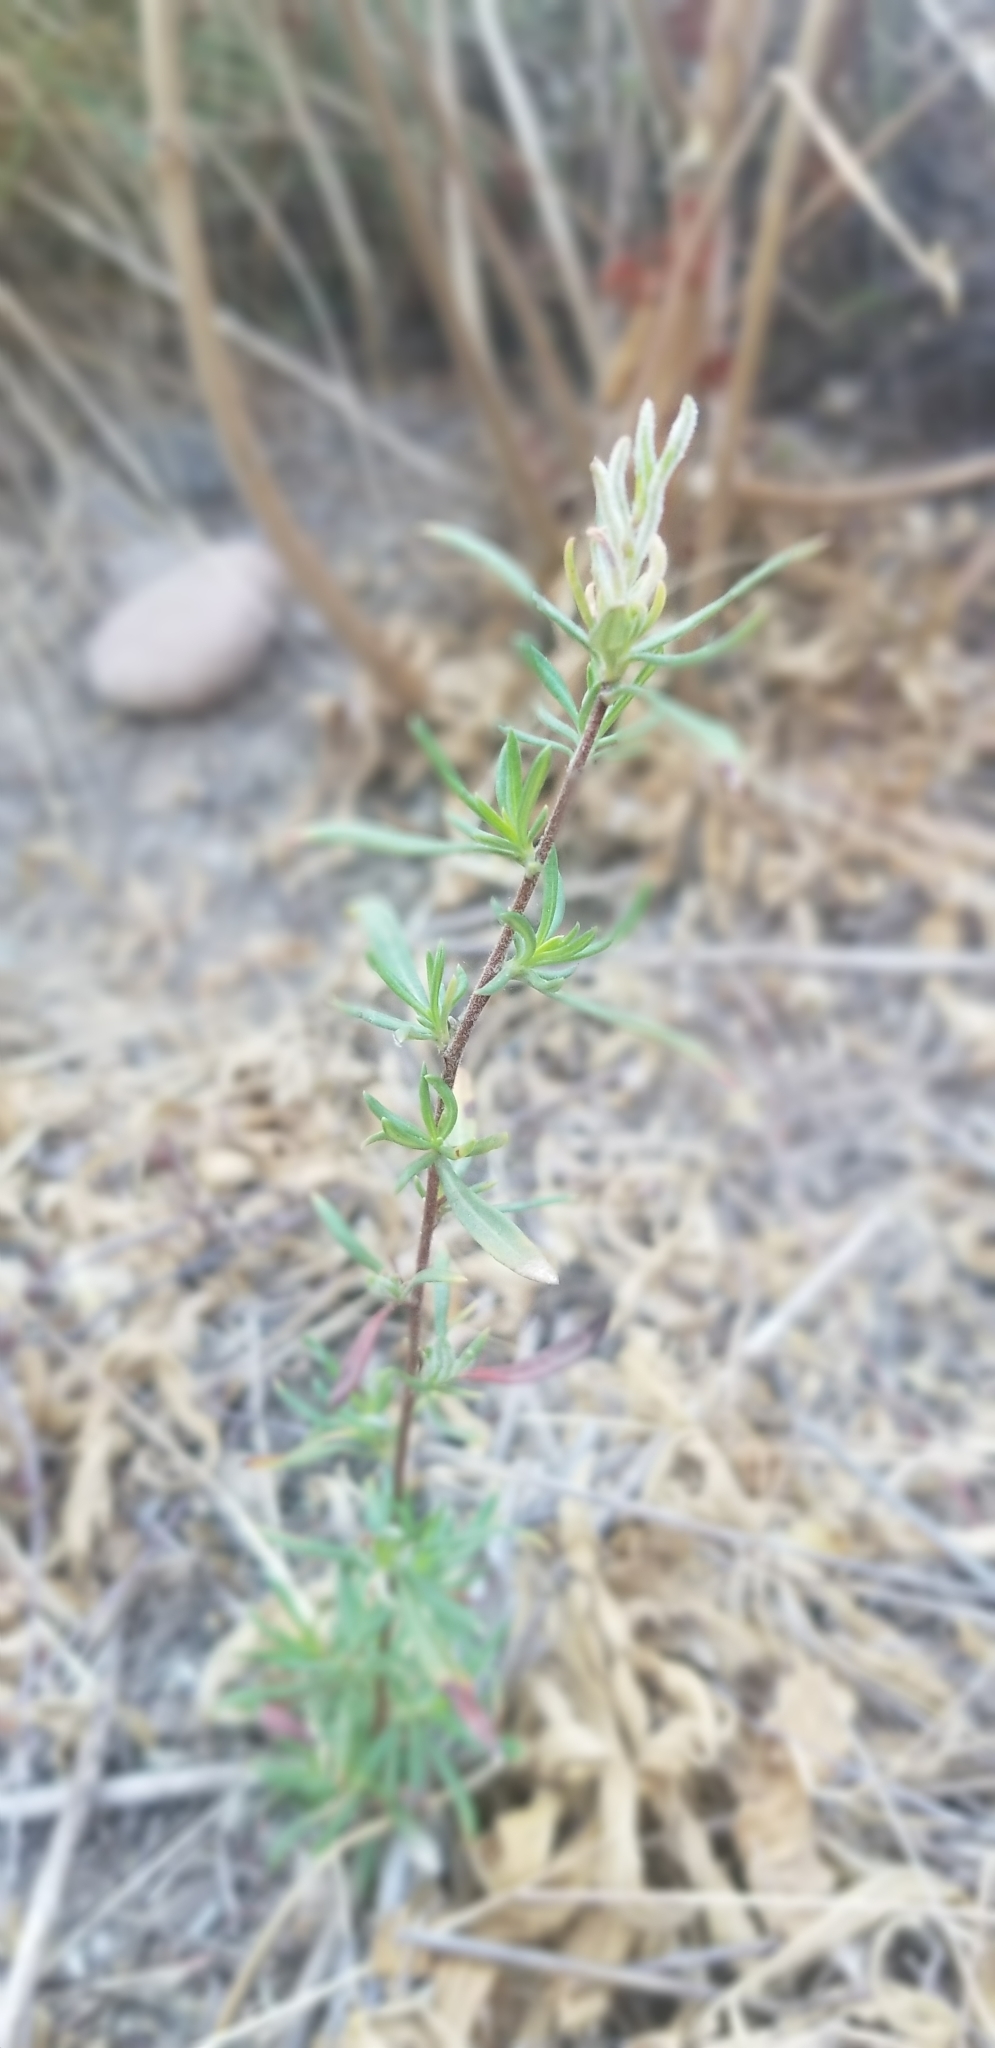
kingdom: Plantae
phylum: Tracheophyta
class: Magnoliopsida
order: Caryophyllales
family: Polygonaceae
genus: Eriogonum
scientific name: Eriogonum fasciculatum
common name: California wild buckwheat
